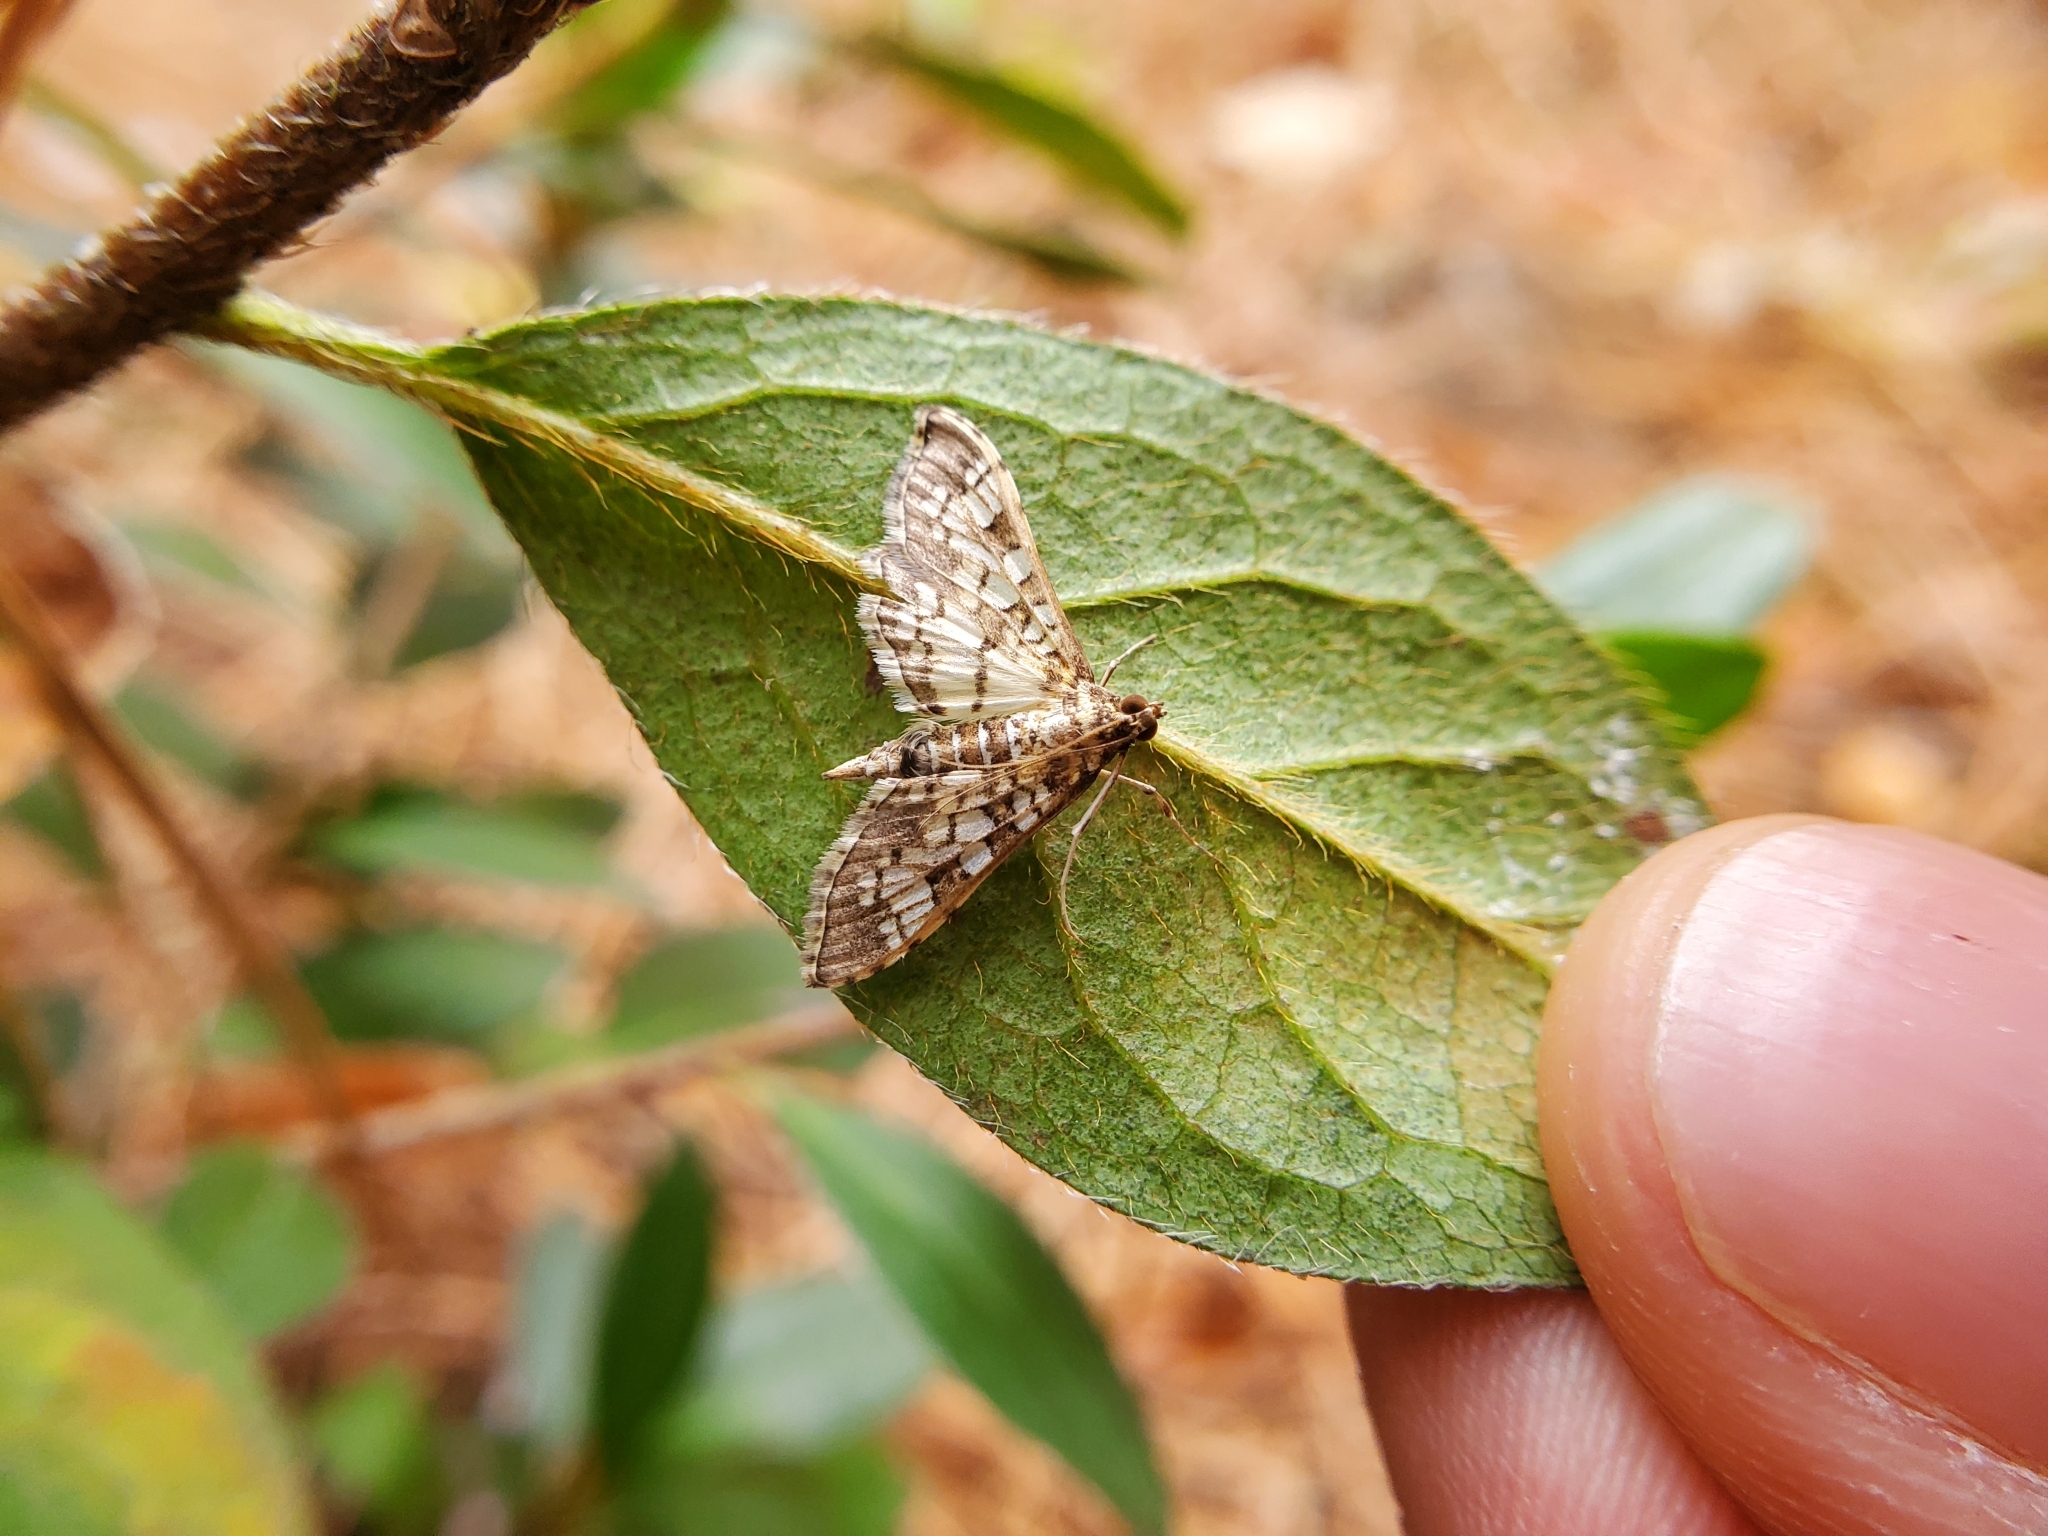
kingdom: Animalia
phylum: Arthropoda
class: Insecta
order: Lepidoptera
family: Crambidae
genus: Samea
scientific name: Samea ecclesialis
